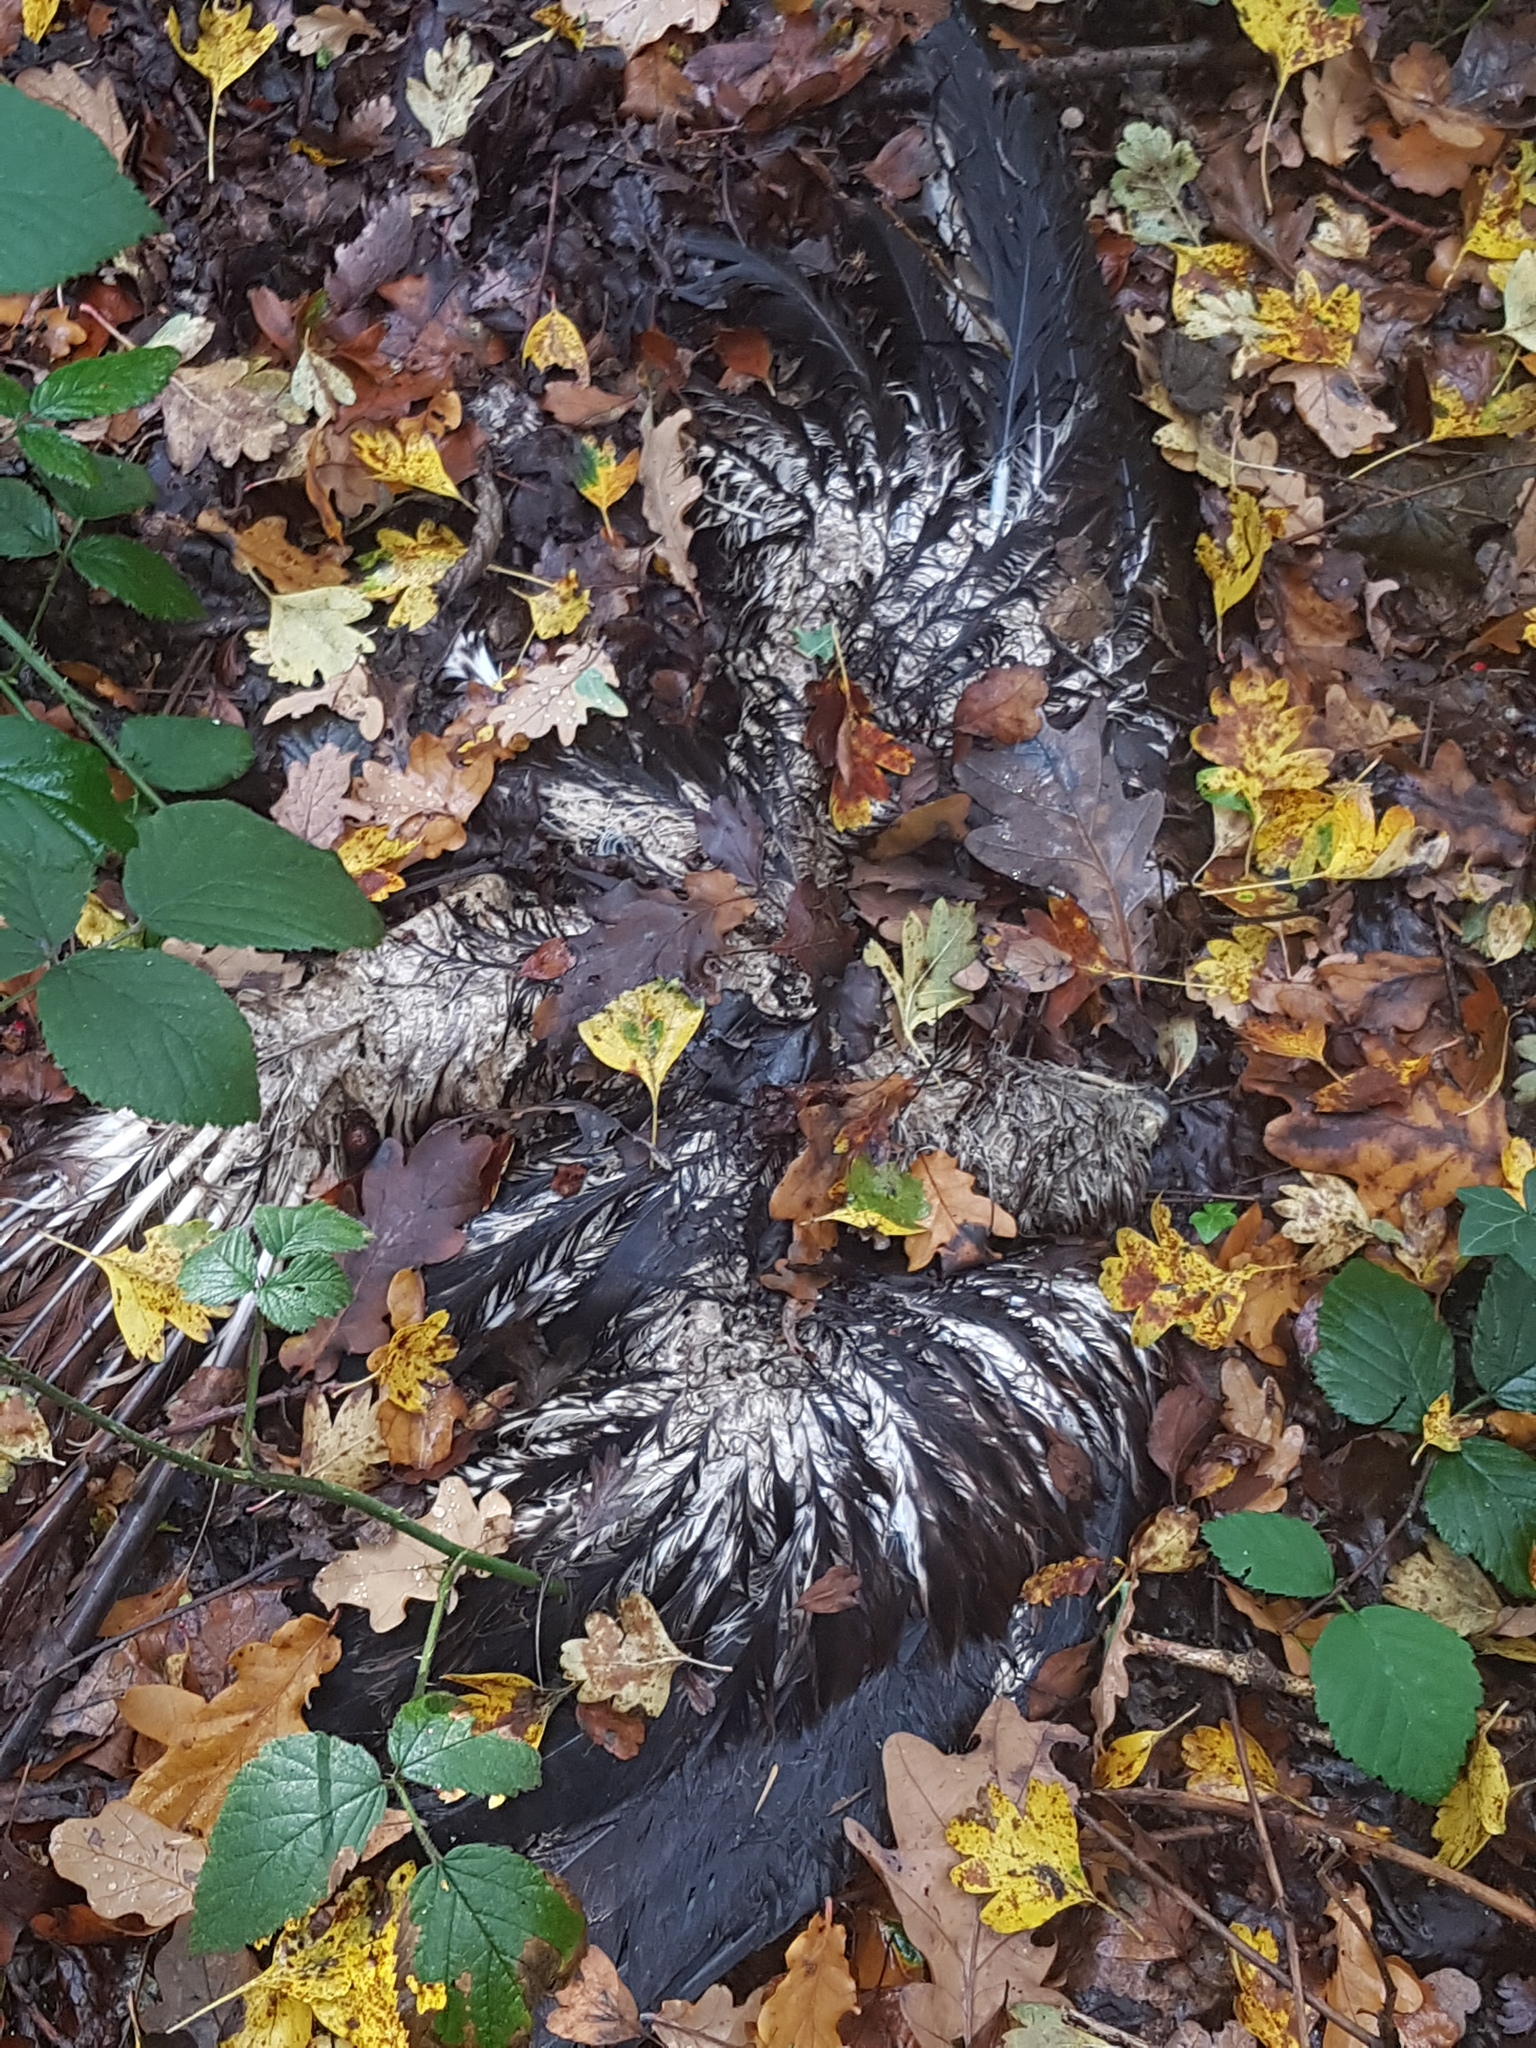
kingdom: Animalia
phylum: Chordata
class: Aves
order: Accipitriformes
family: Accipitridae
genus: Milvus
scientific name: Milvus milvus
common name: Red kite
